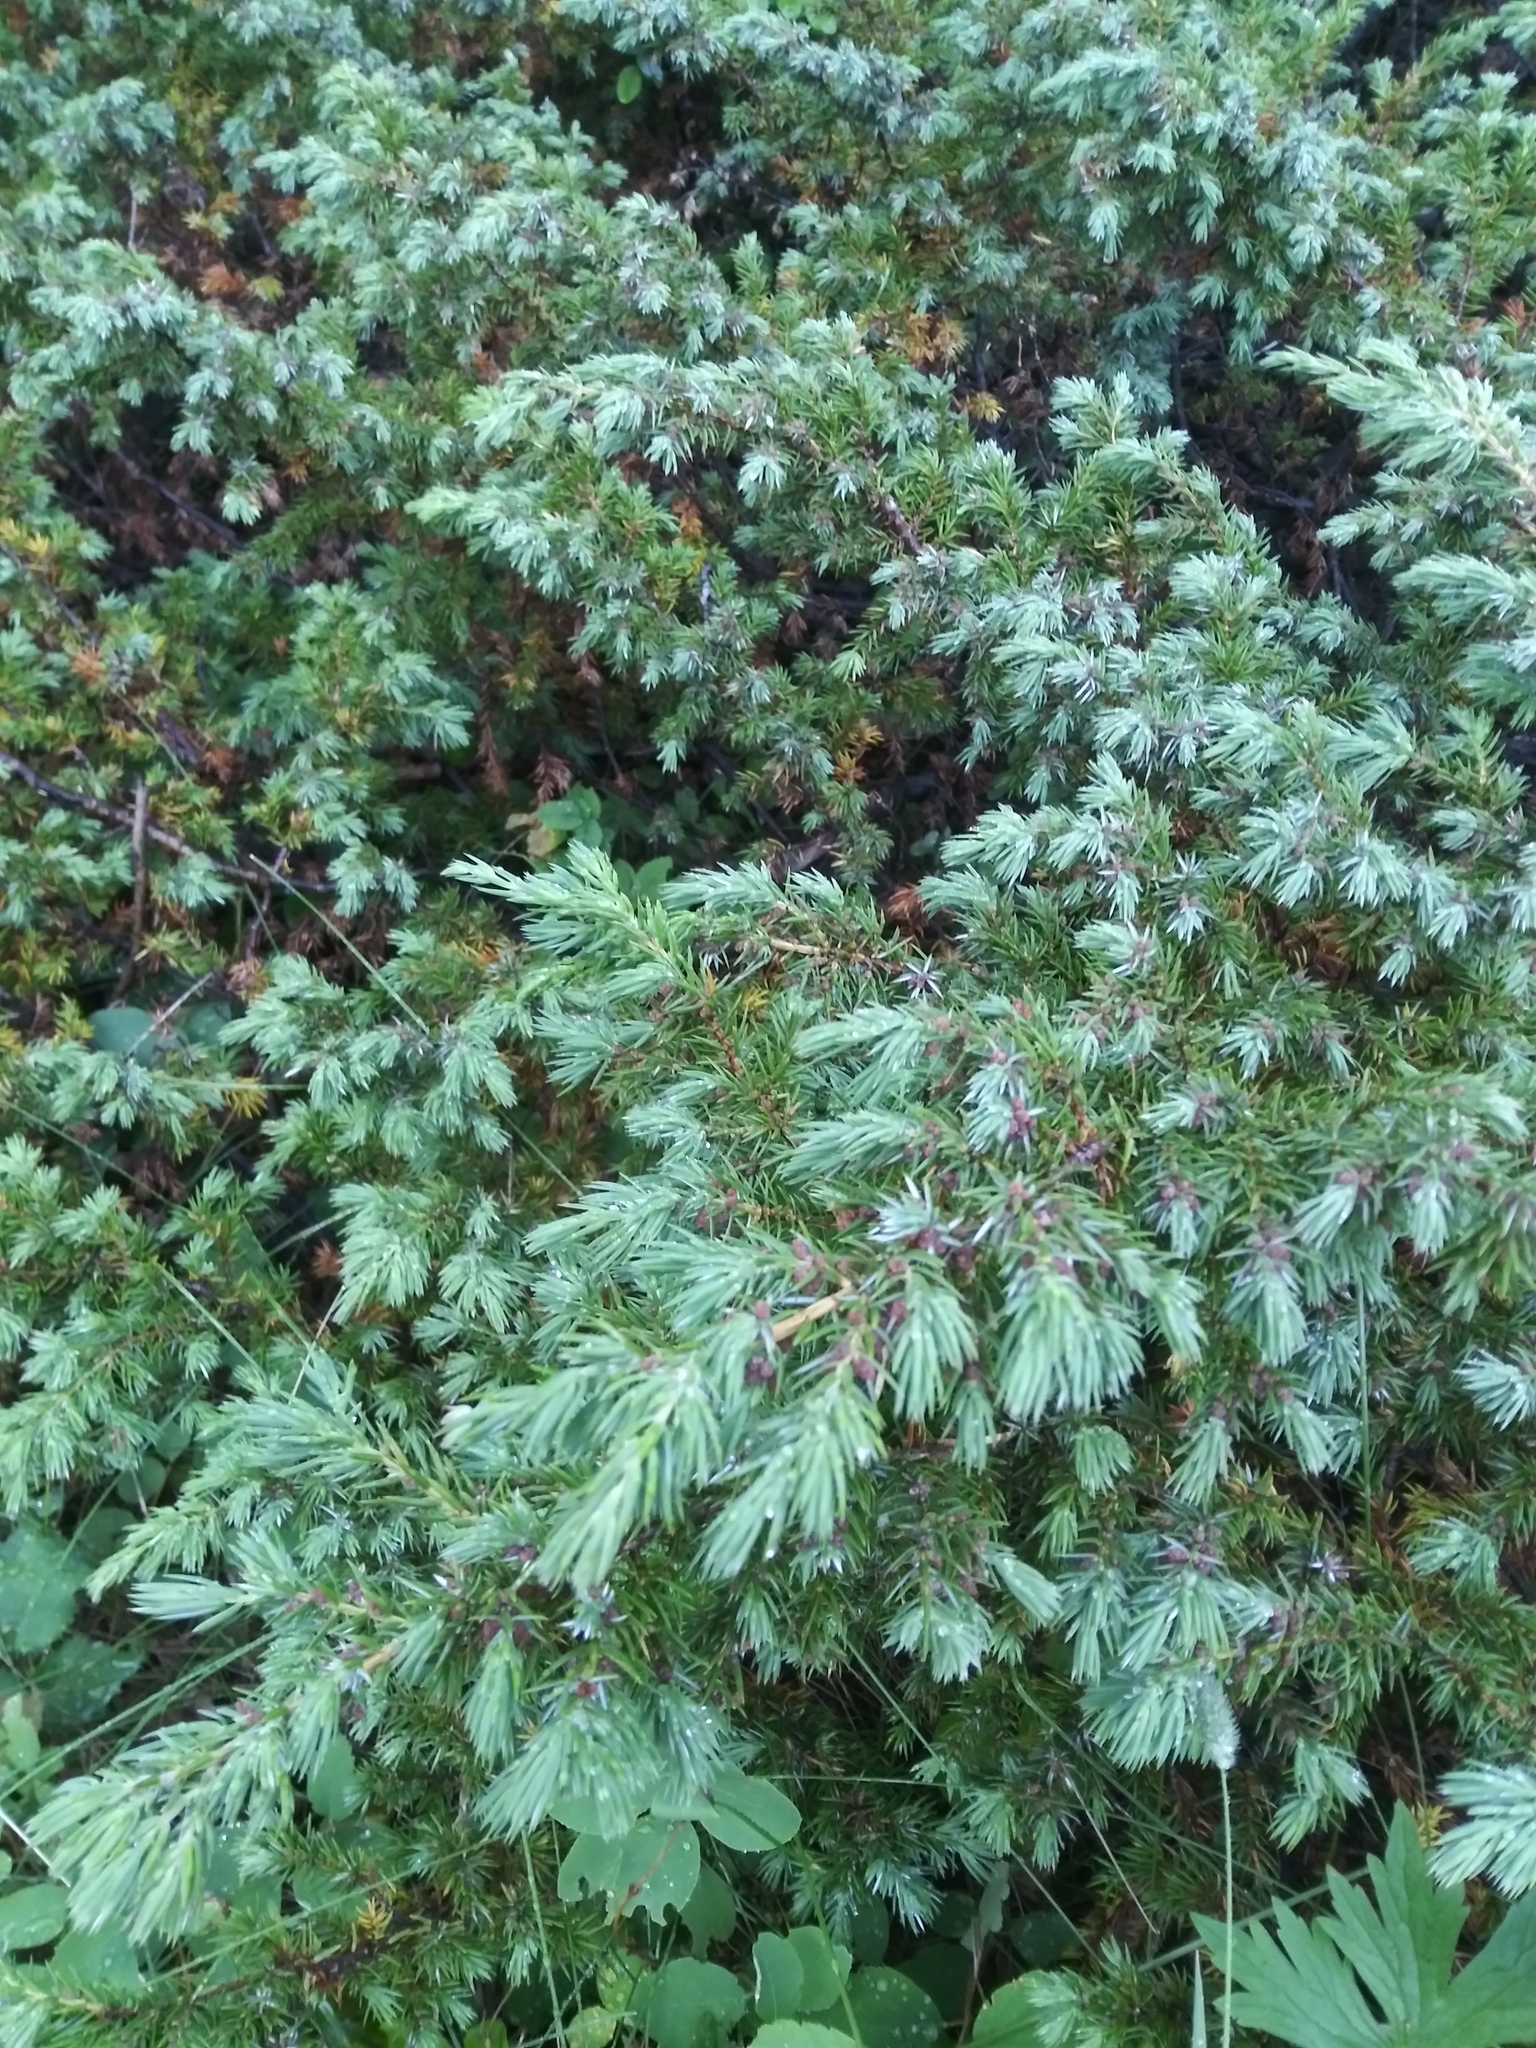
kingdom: Plantae
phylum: Tracheophyta
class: Pinopsida
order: Pinales
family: Cupressaceae
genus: Juniperus
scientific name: Juniperus communis
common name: Common juniper
